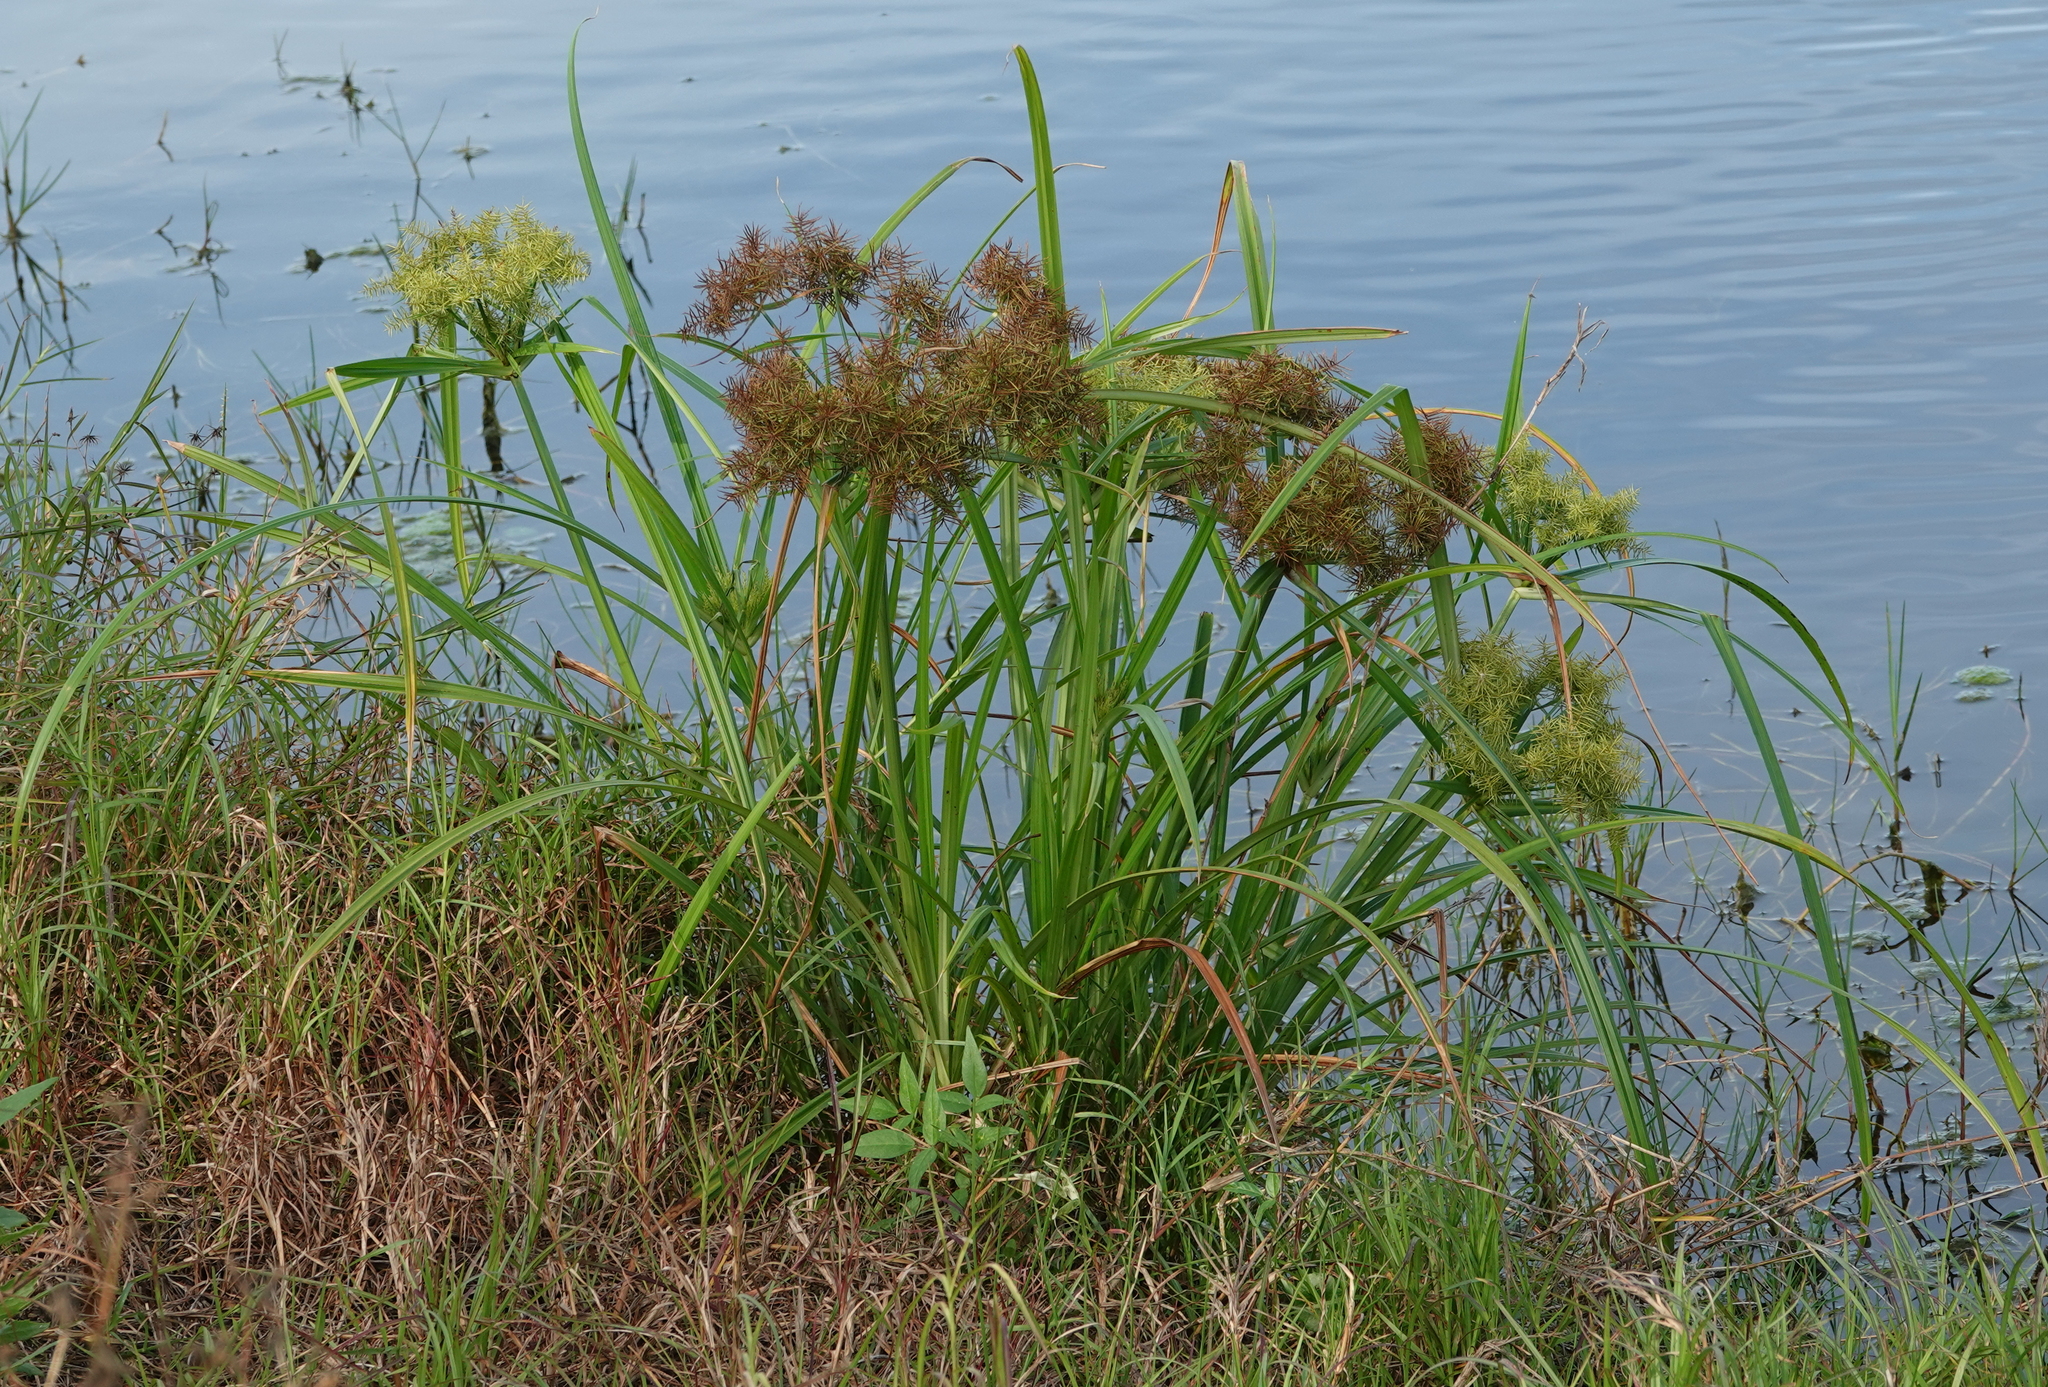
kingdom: Plantae
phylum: Tracheophyta
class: Liliopsida
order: Poales
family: Cyperaceae
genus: Cyperus
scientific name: Cyperus odoratus
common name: Fragrant flatsedge
